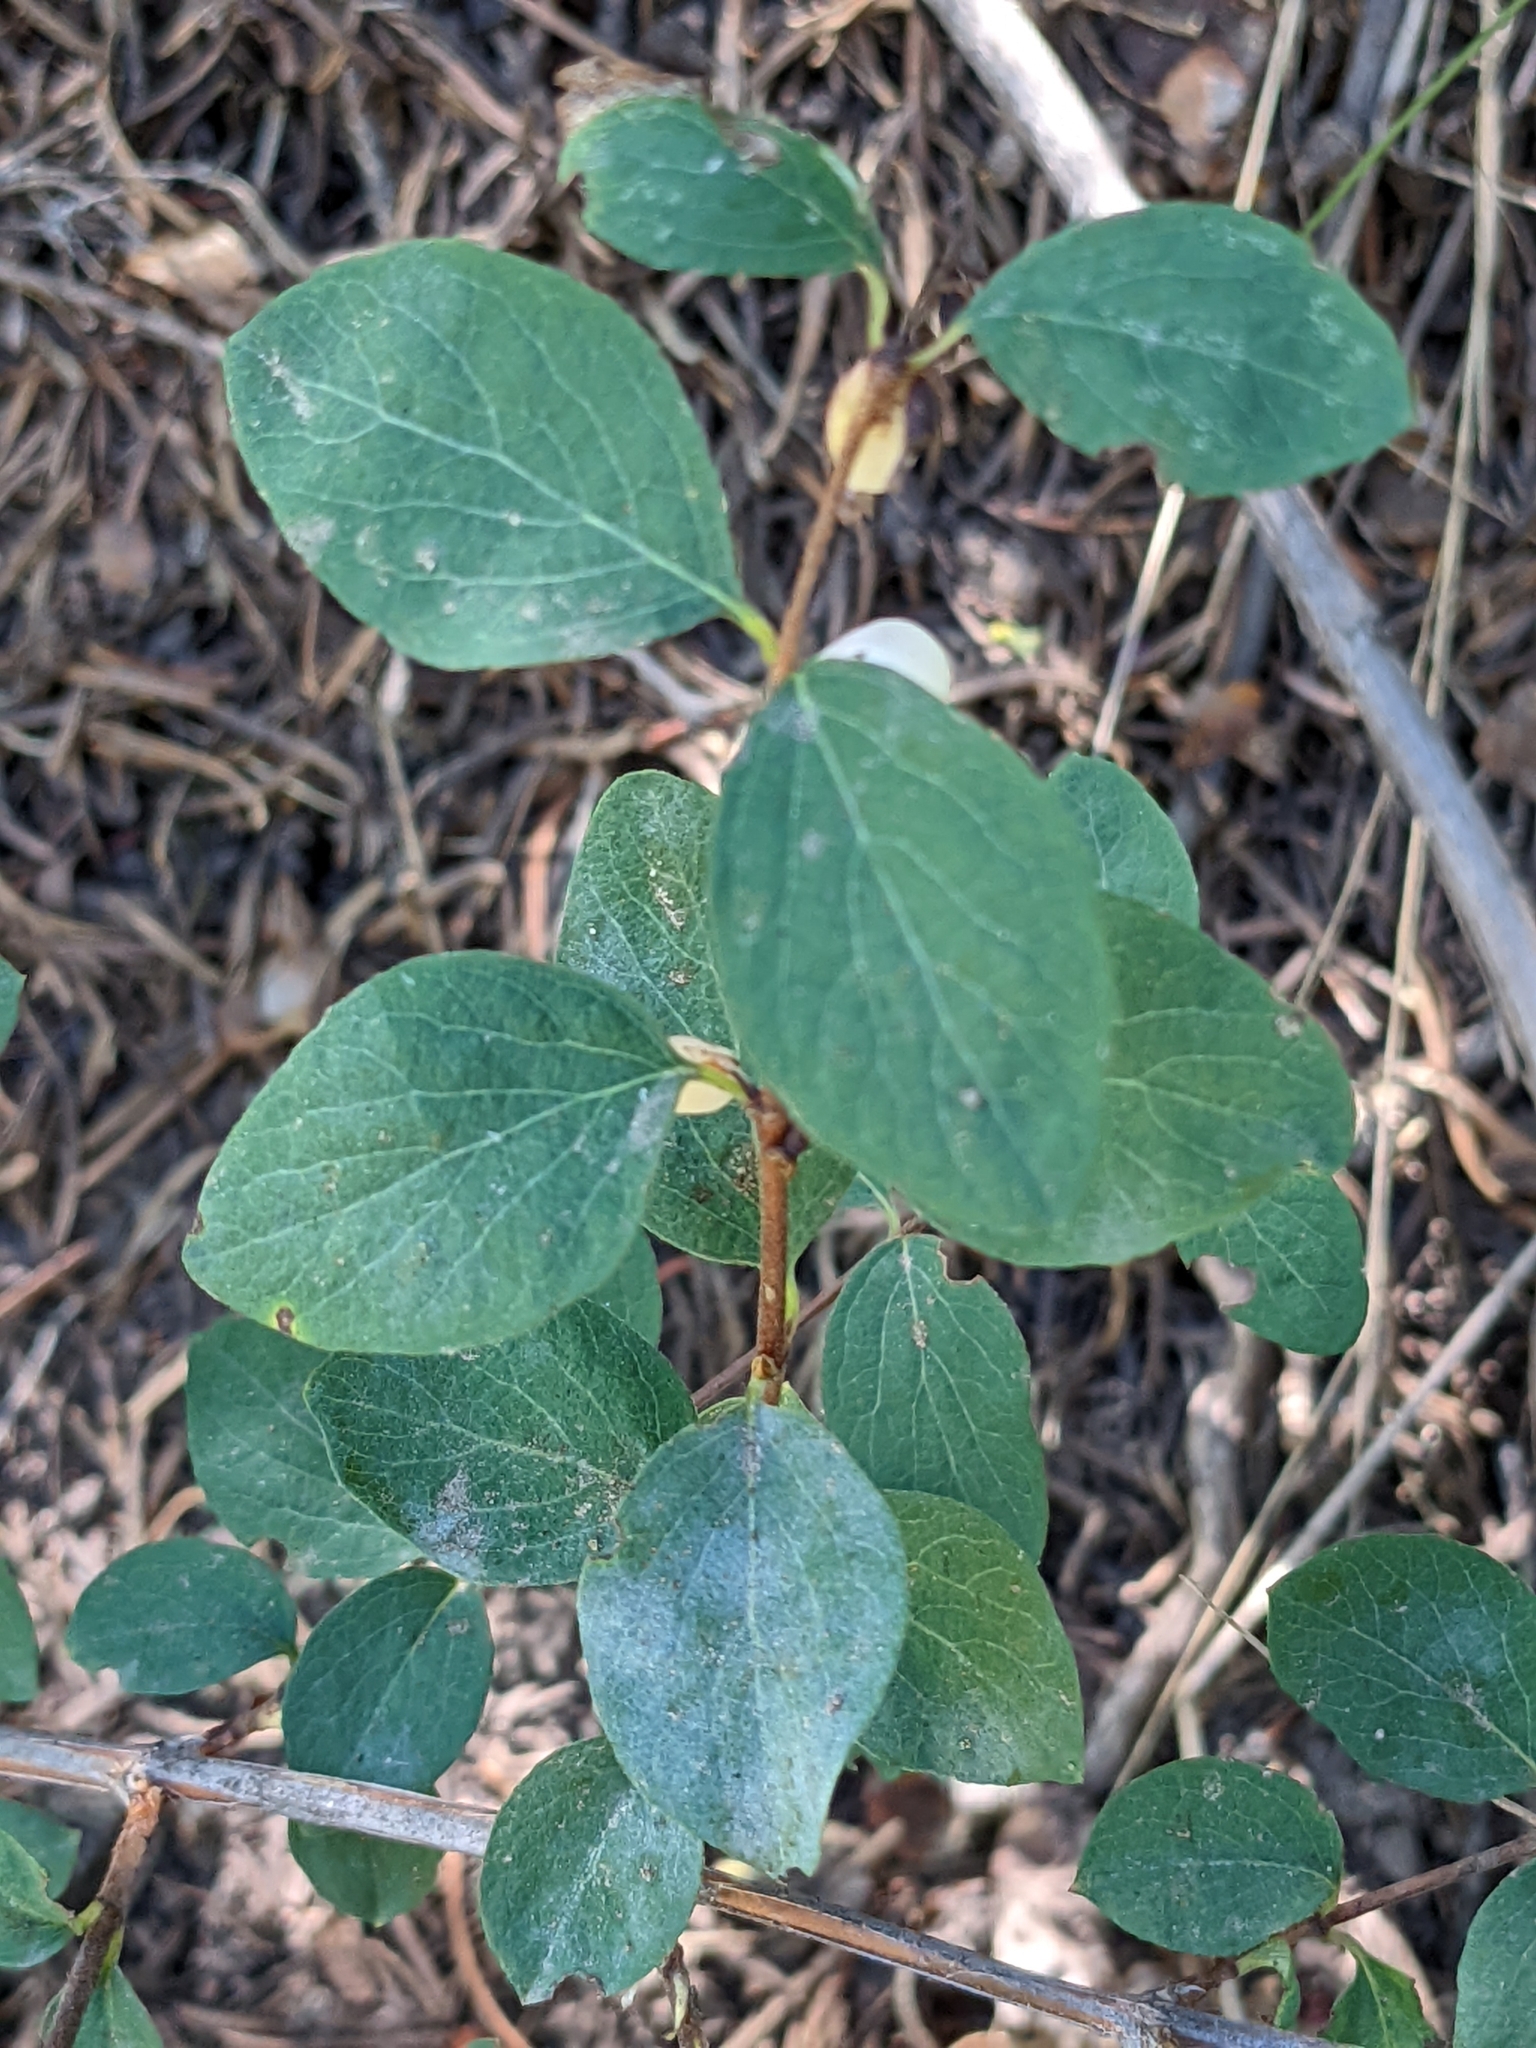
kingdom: Plantae
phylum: Tracheophyta
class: Magnoliopsida
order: Dipsacales
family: Caprifoliaceae
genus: Symphoricarpos
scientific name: Symphoricarpos rotundifolius
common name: Round-leaved snowberry
